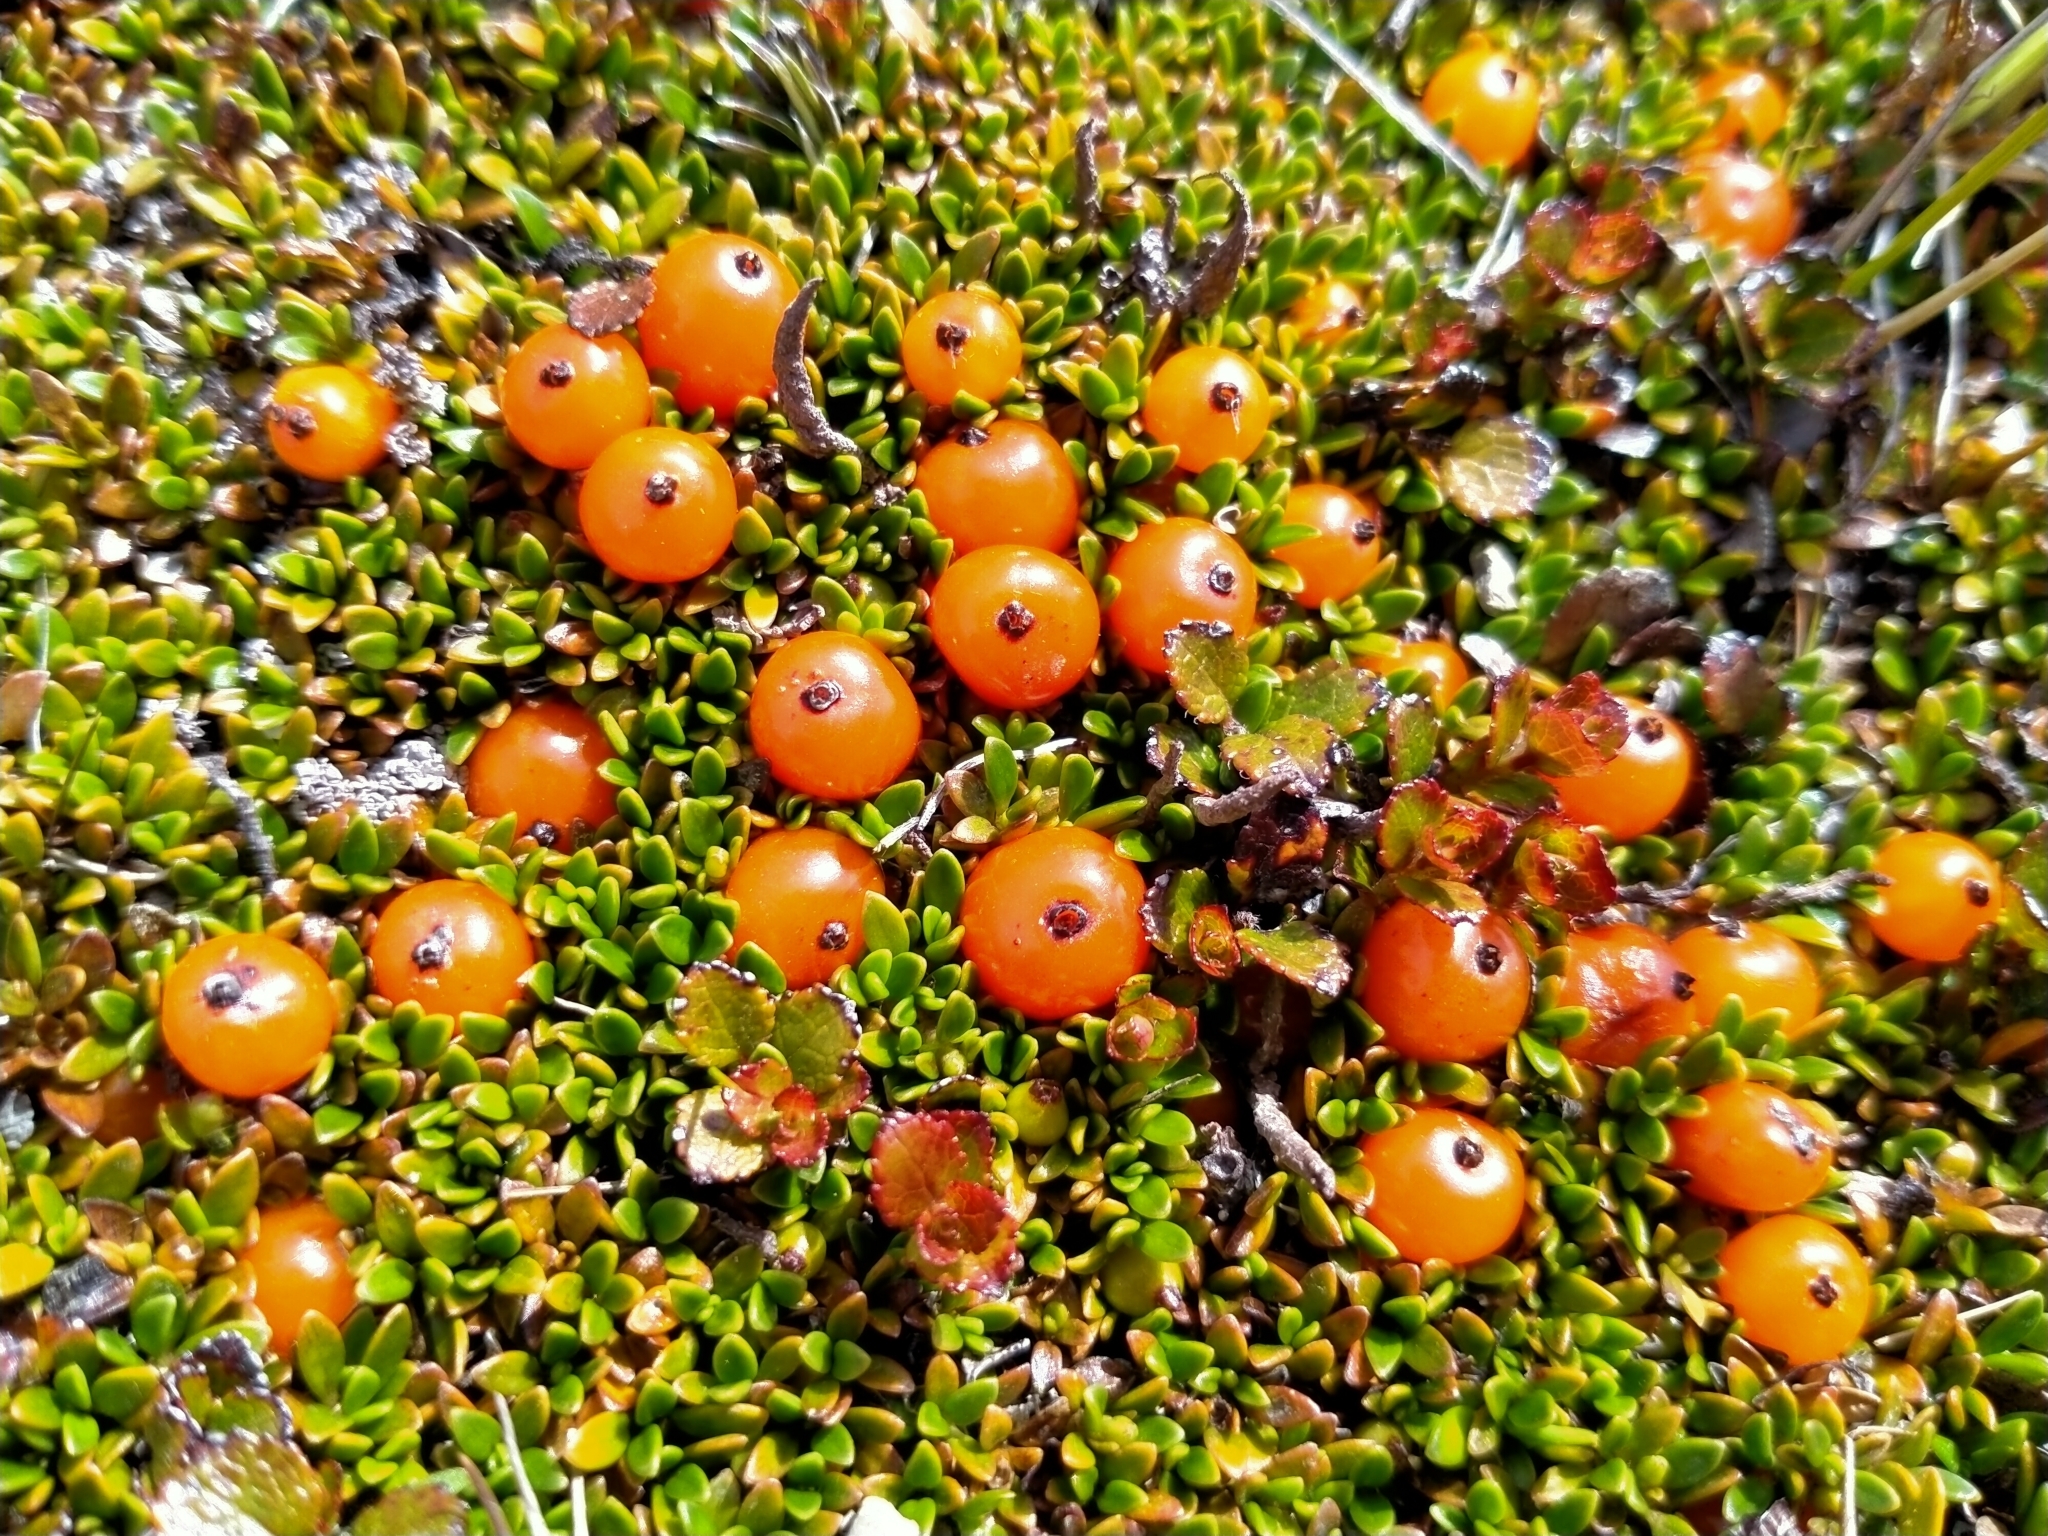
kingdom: Plantae
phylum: Tracheophyta
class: Magnoliopsida
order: Gentianales
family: Rubiaceae
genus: Coprosma
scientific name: Coprosma perpusilla
